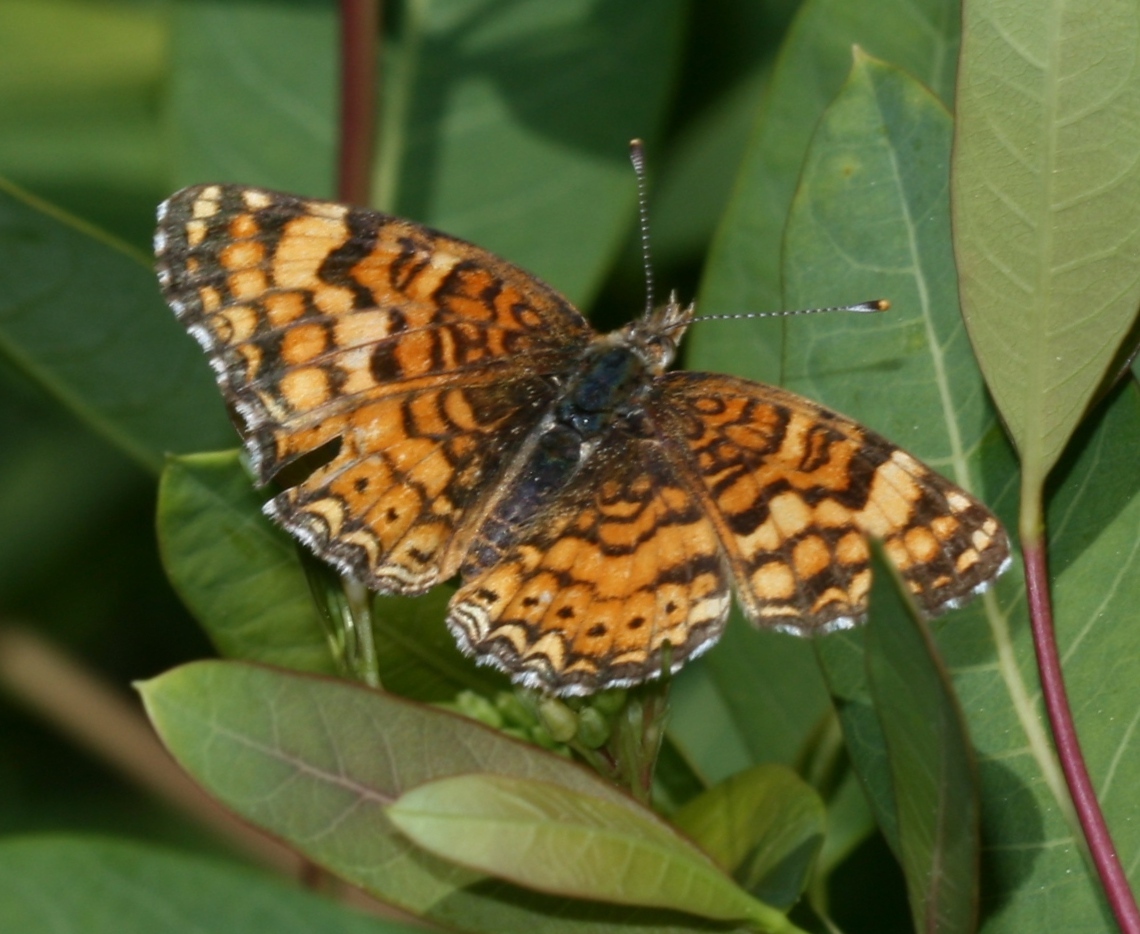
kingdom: Animalia
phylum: Arthropoda
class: Insecta
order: Lepidoptera
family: Nymphalidae
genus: Eresia
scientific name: Eresia aveyrona
